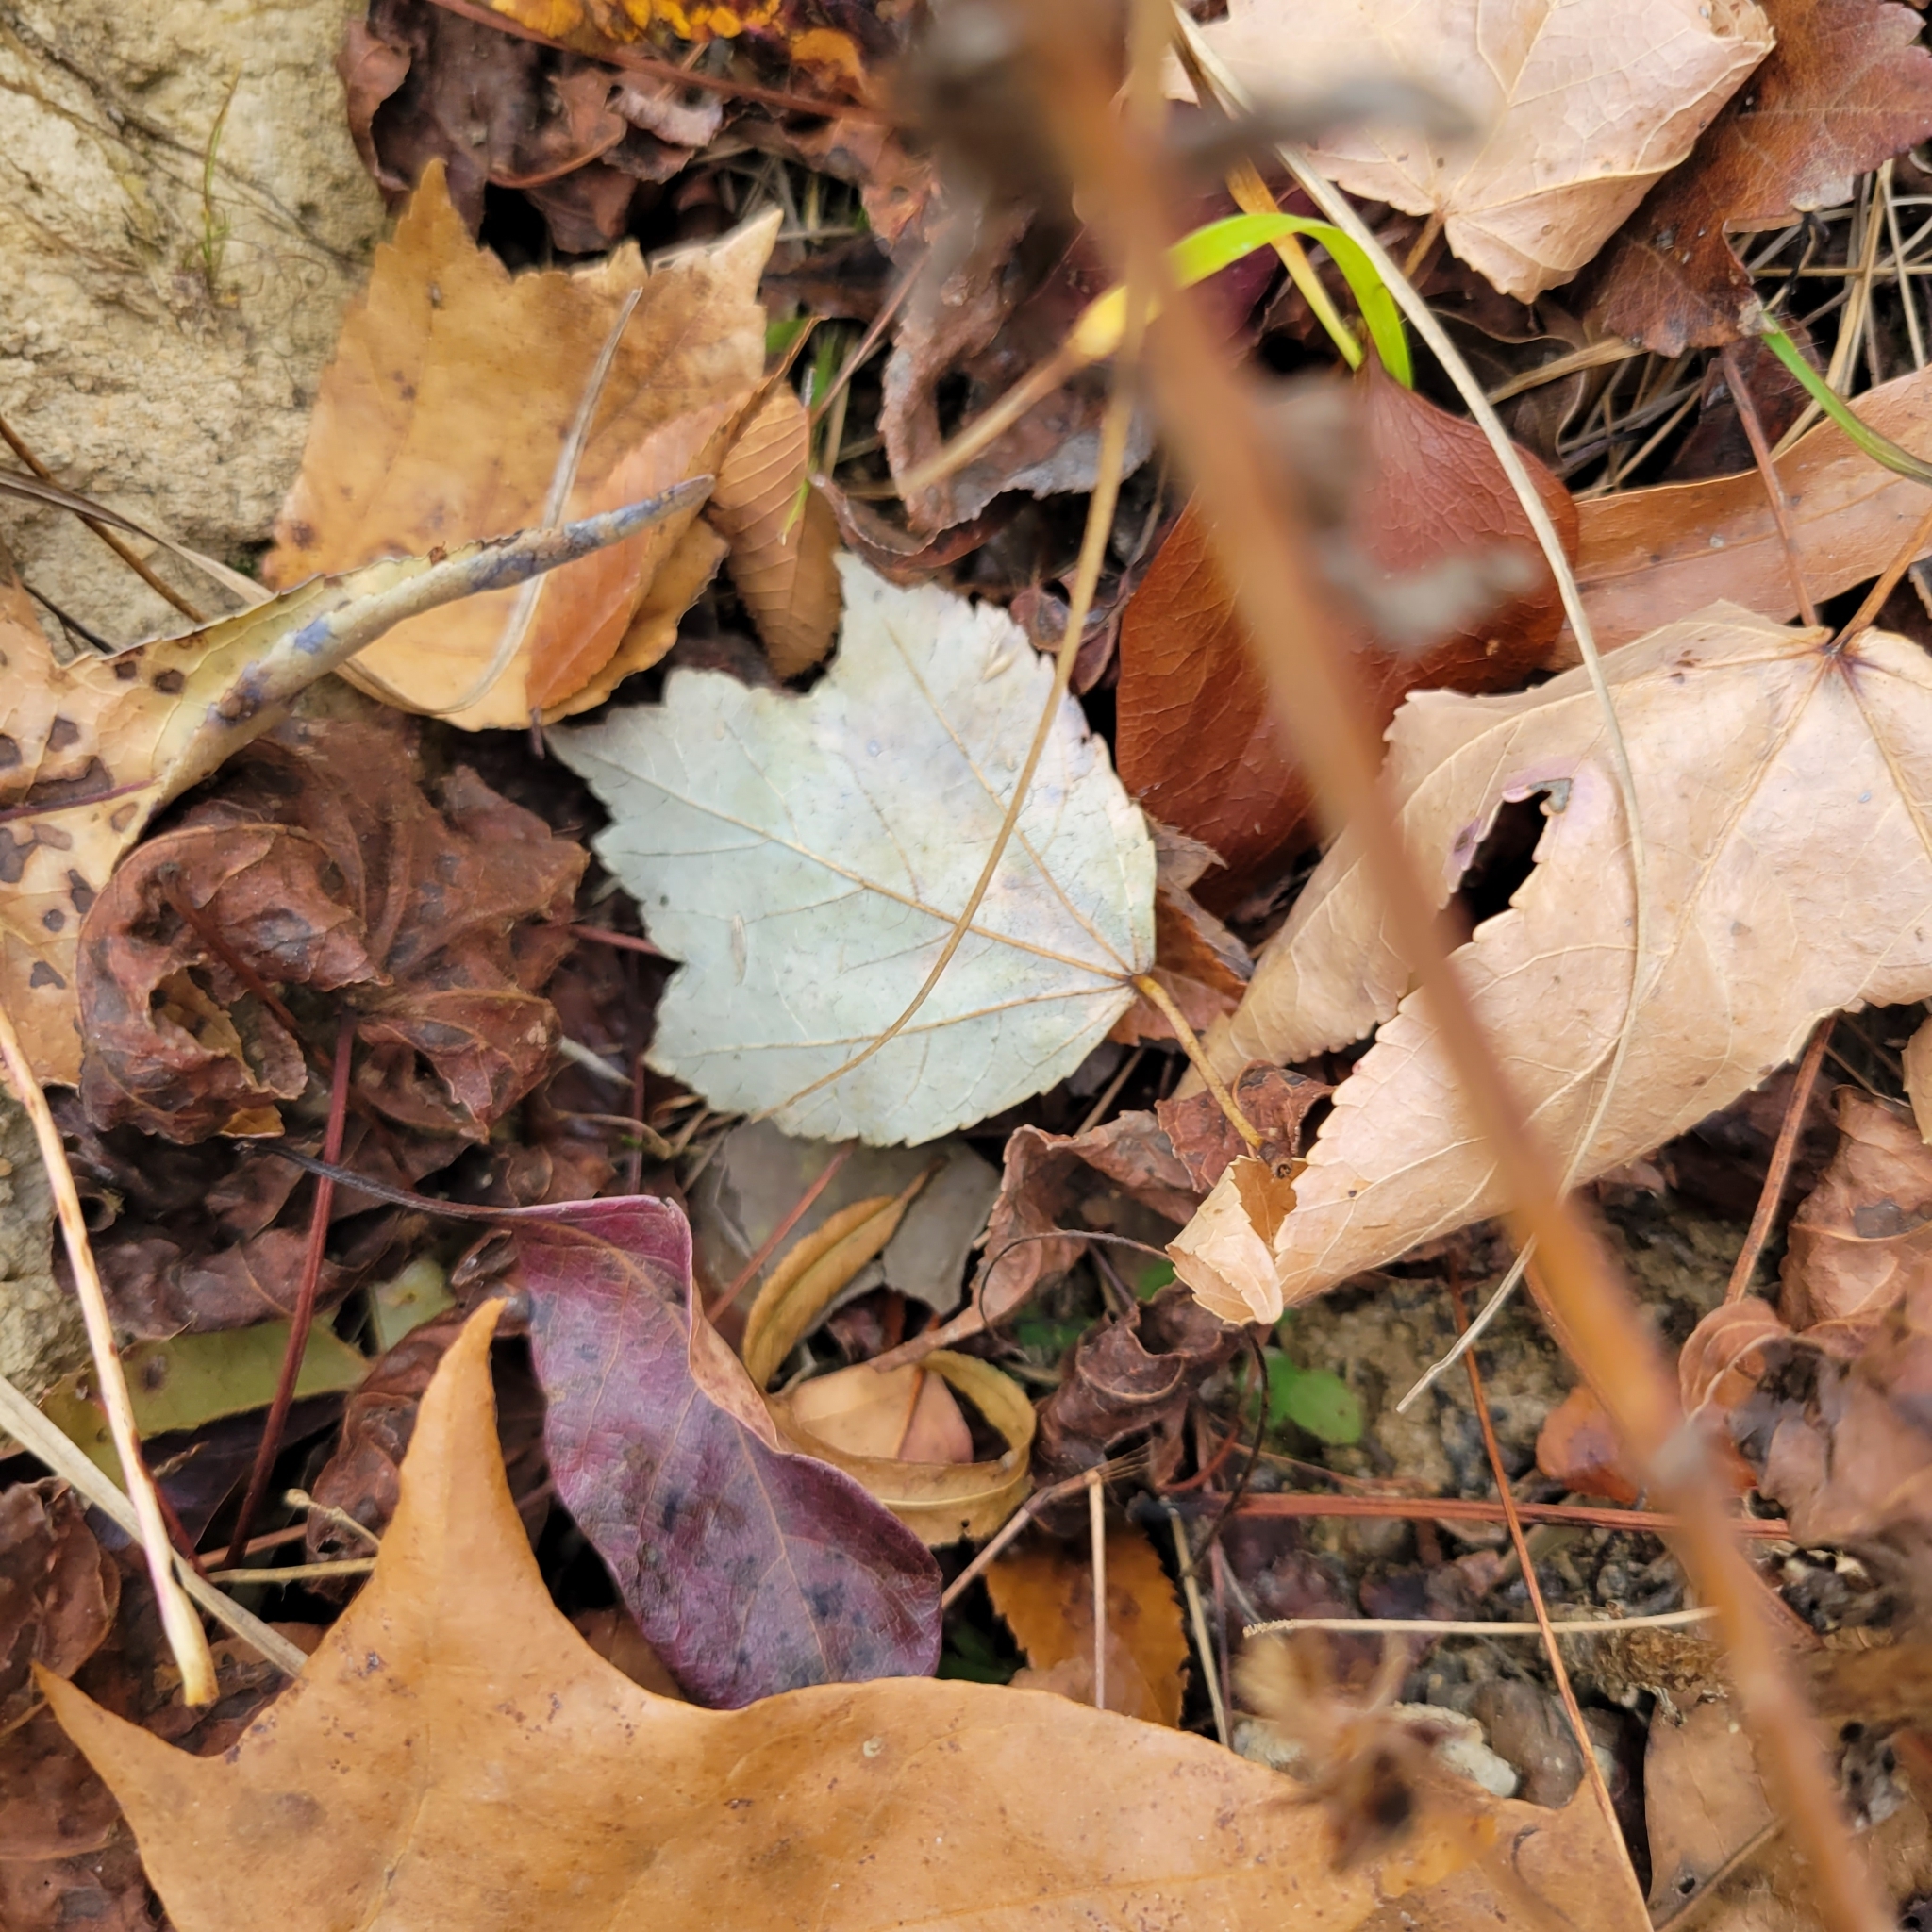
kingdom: Plantae
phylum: Tracheophyta
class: Magnoliopsida
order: Sapindales
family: Sapindaceae
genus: Acer
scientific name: Acer rubrum
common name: Red maple
